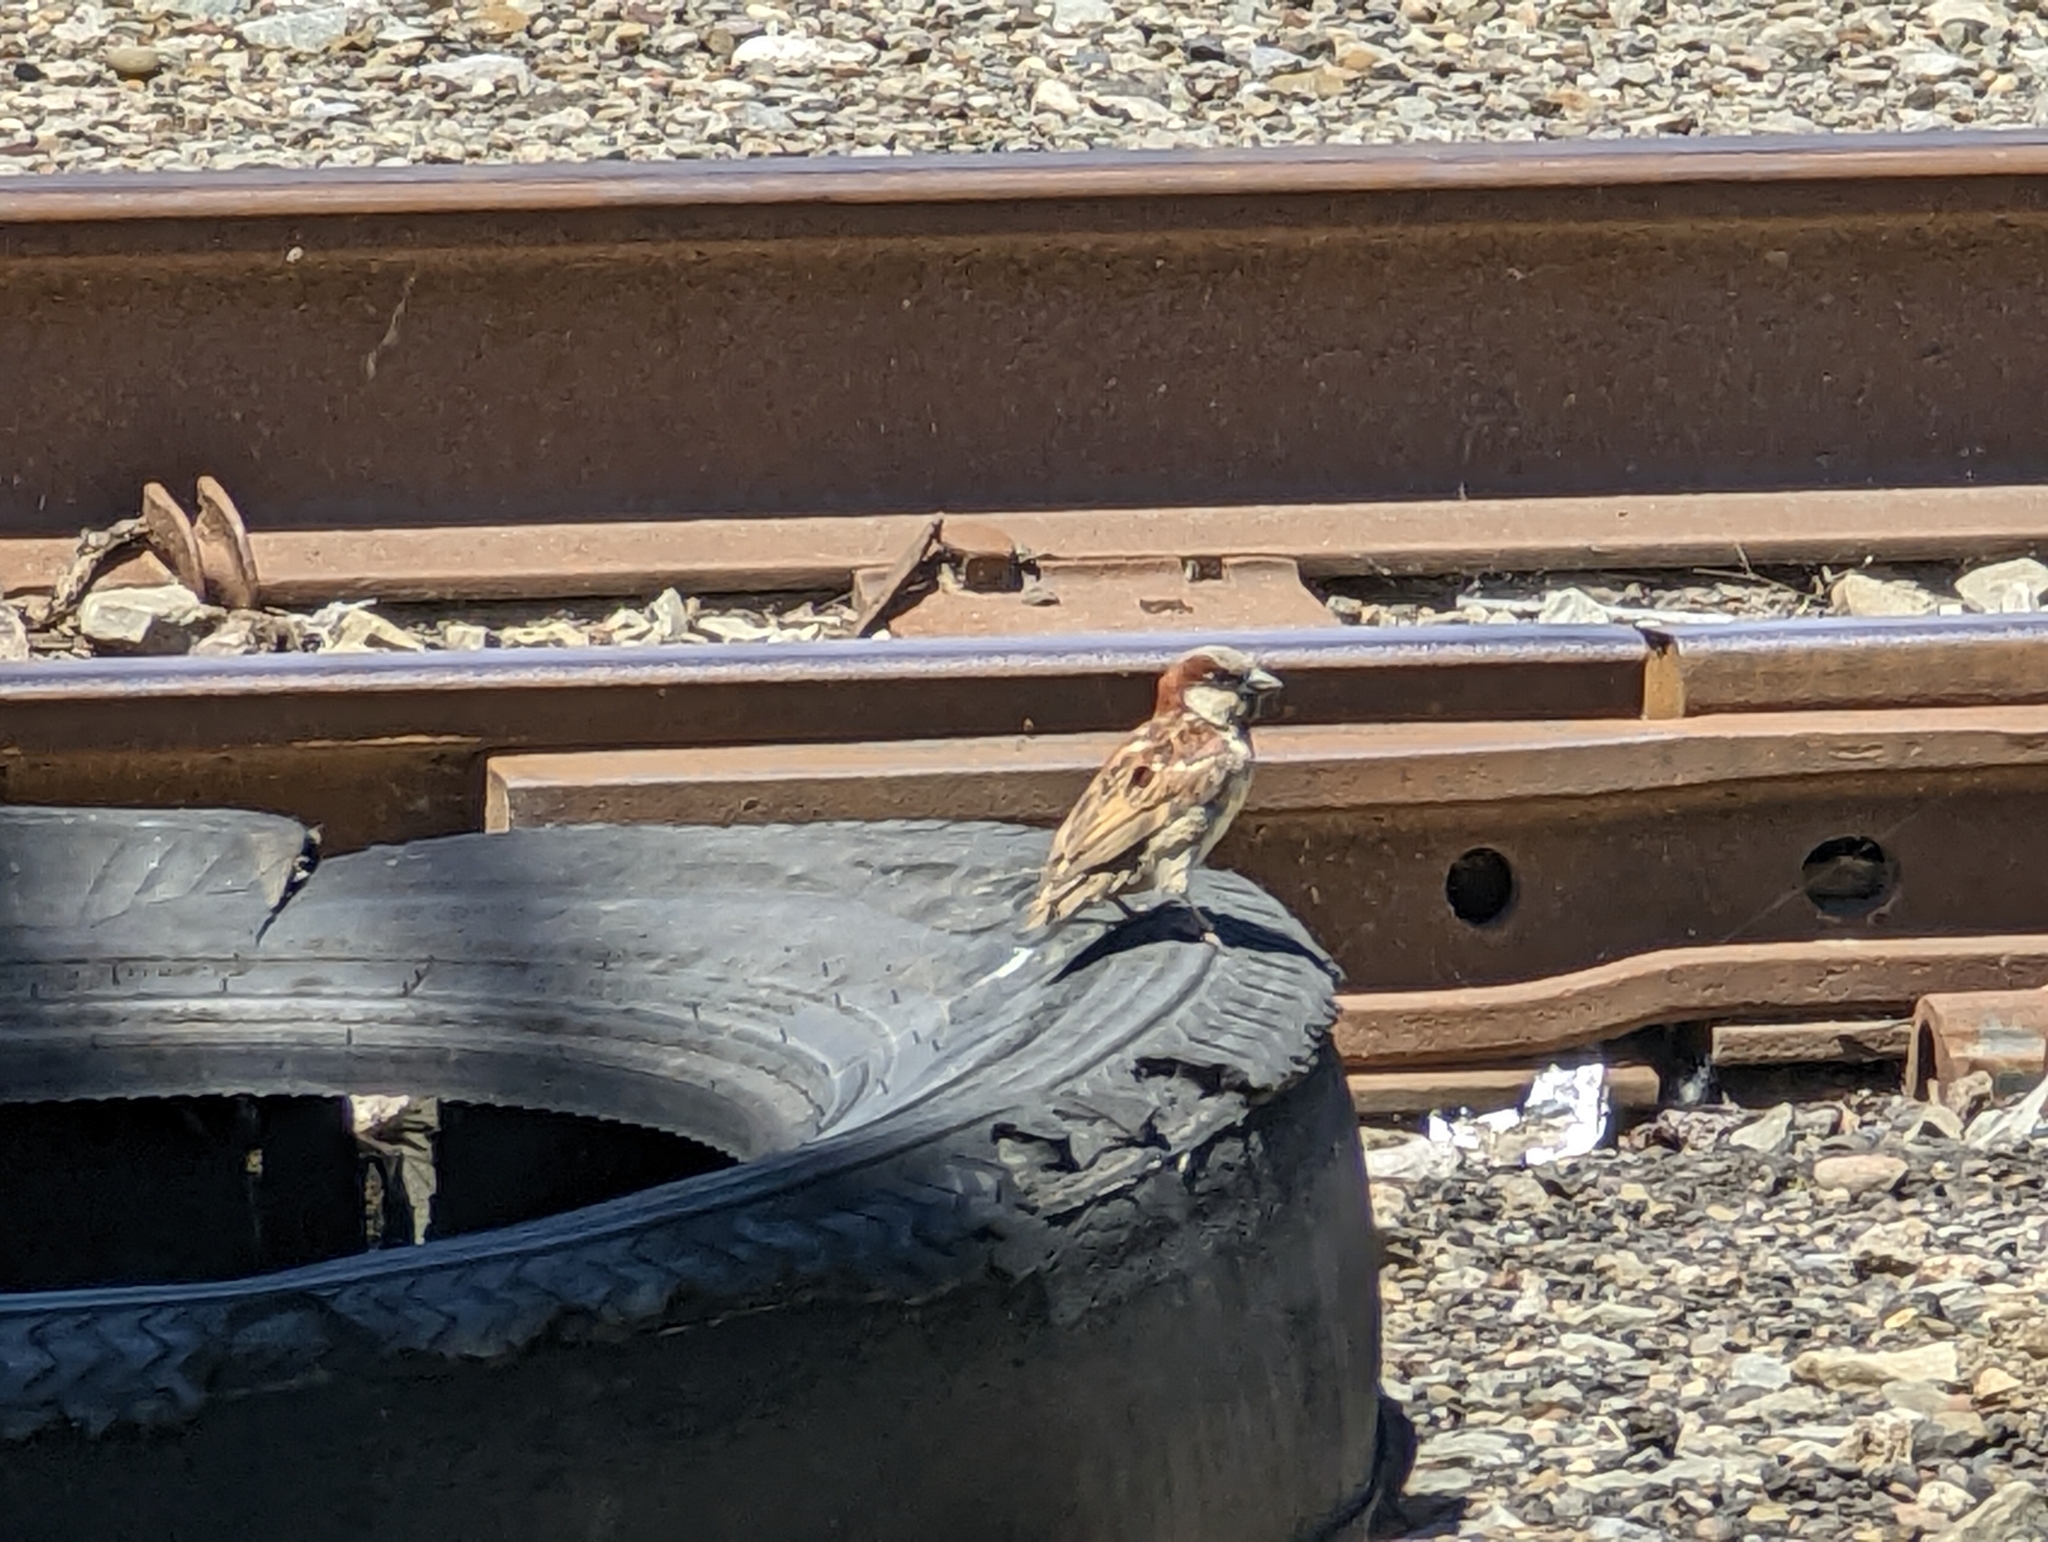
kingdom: Animalia
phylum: Chordata
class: Aves
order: Passeriformes
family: Passeridae
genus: Passer
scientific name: Passer domesticus
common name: House sparrow
